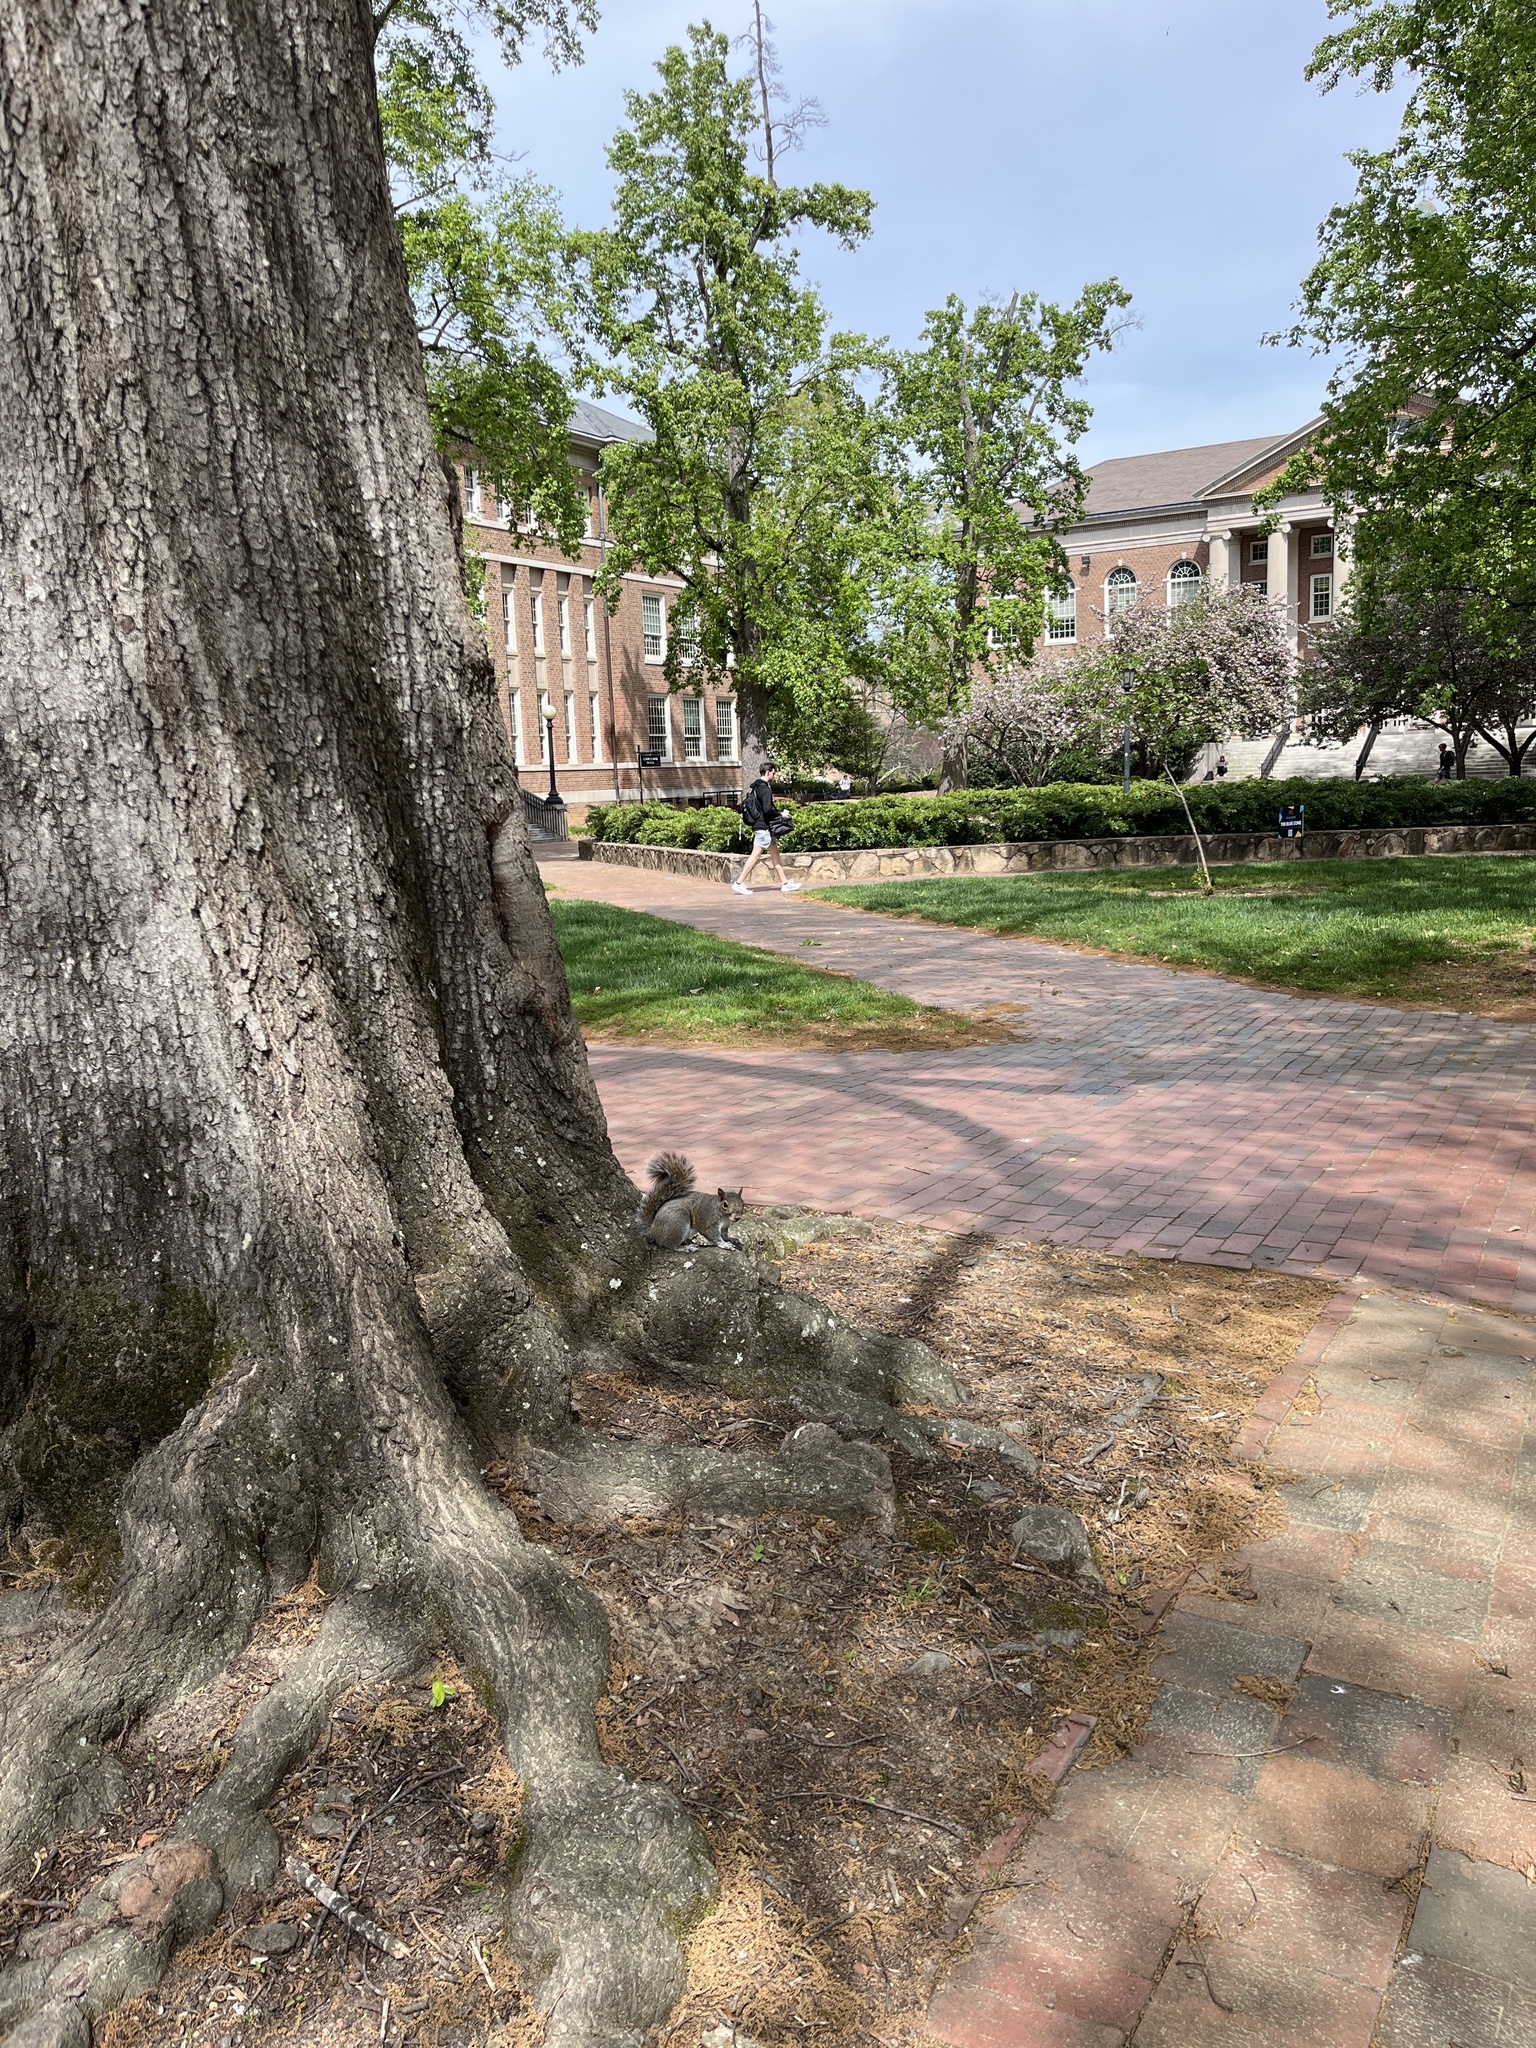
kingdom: Animalia
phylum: Chordata
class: Mammalia
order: Rodentia
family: Sciuridae
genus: Sciurus
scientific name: Sciurus carolinensis
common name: Eastern gray squirrel
